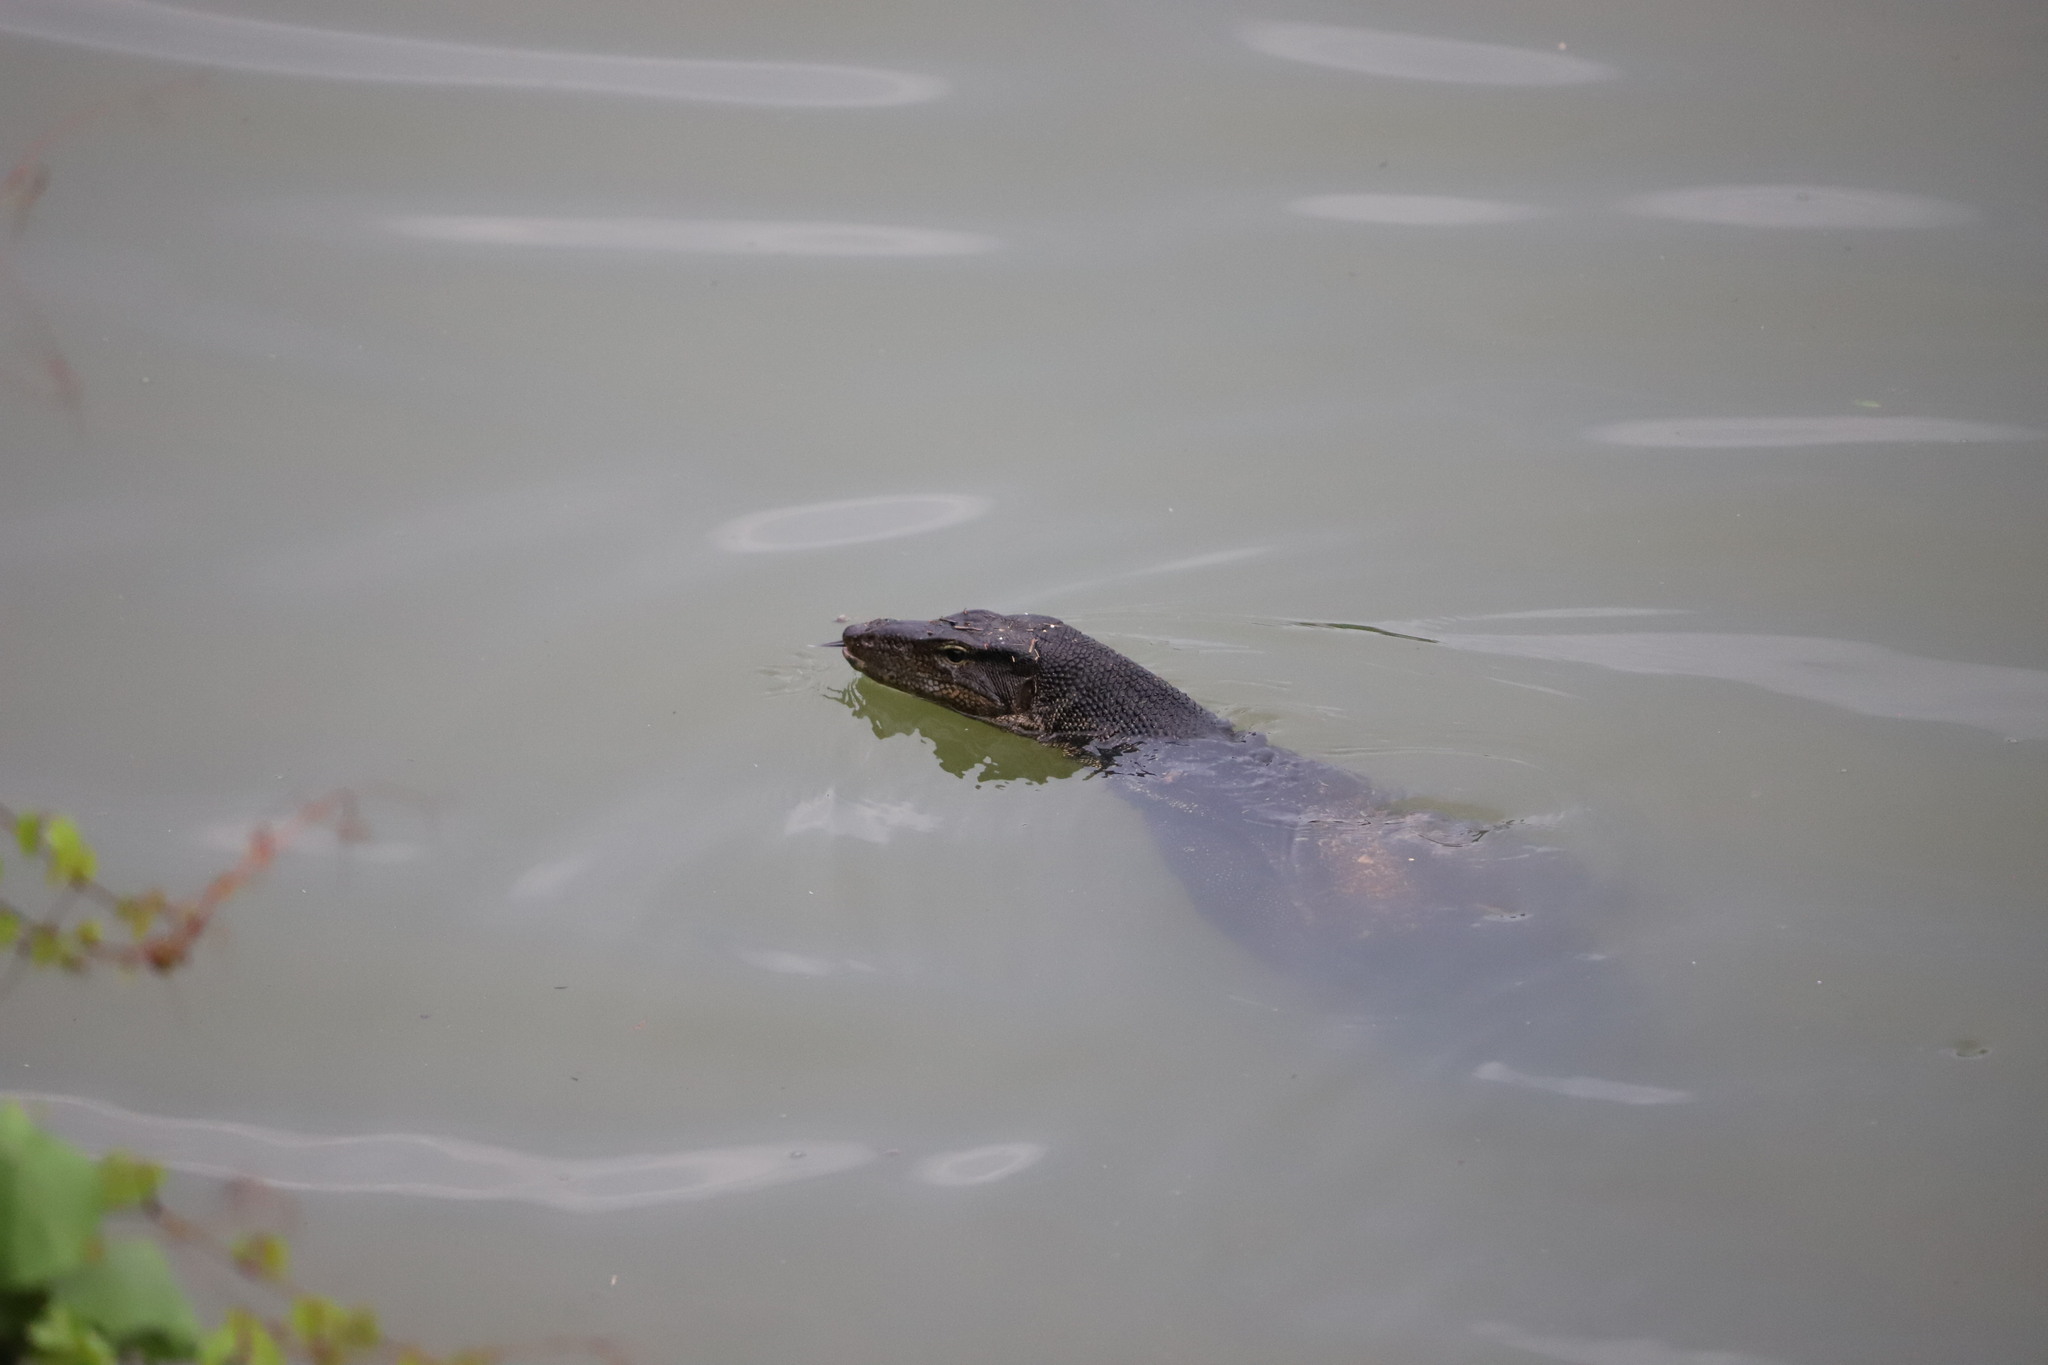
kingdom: Animalia
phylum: Chordata
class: Squamata
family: Varanidae
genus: Varanus
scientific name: Varanus salvator
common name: Common water monitor
